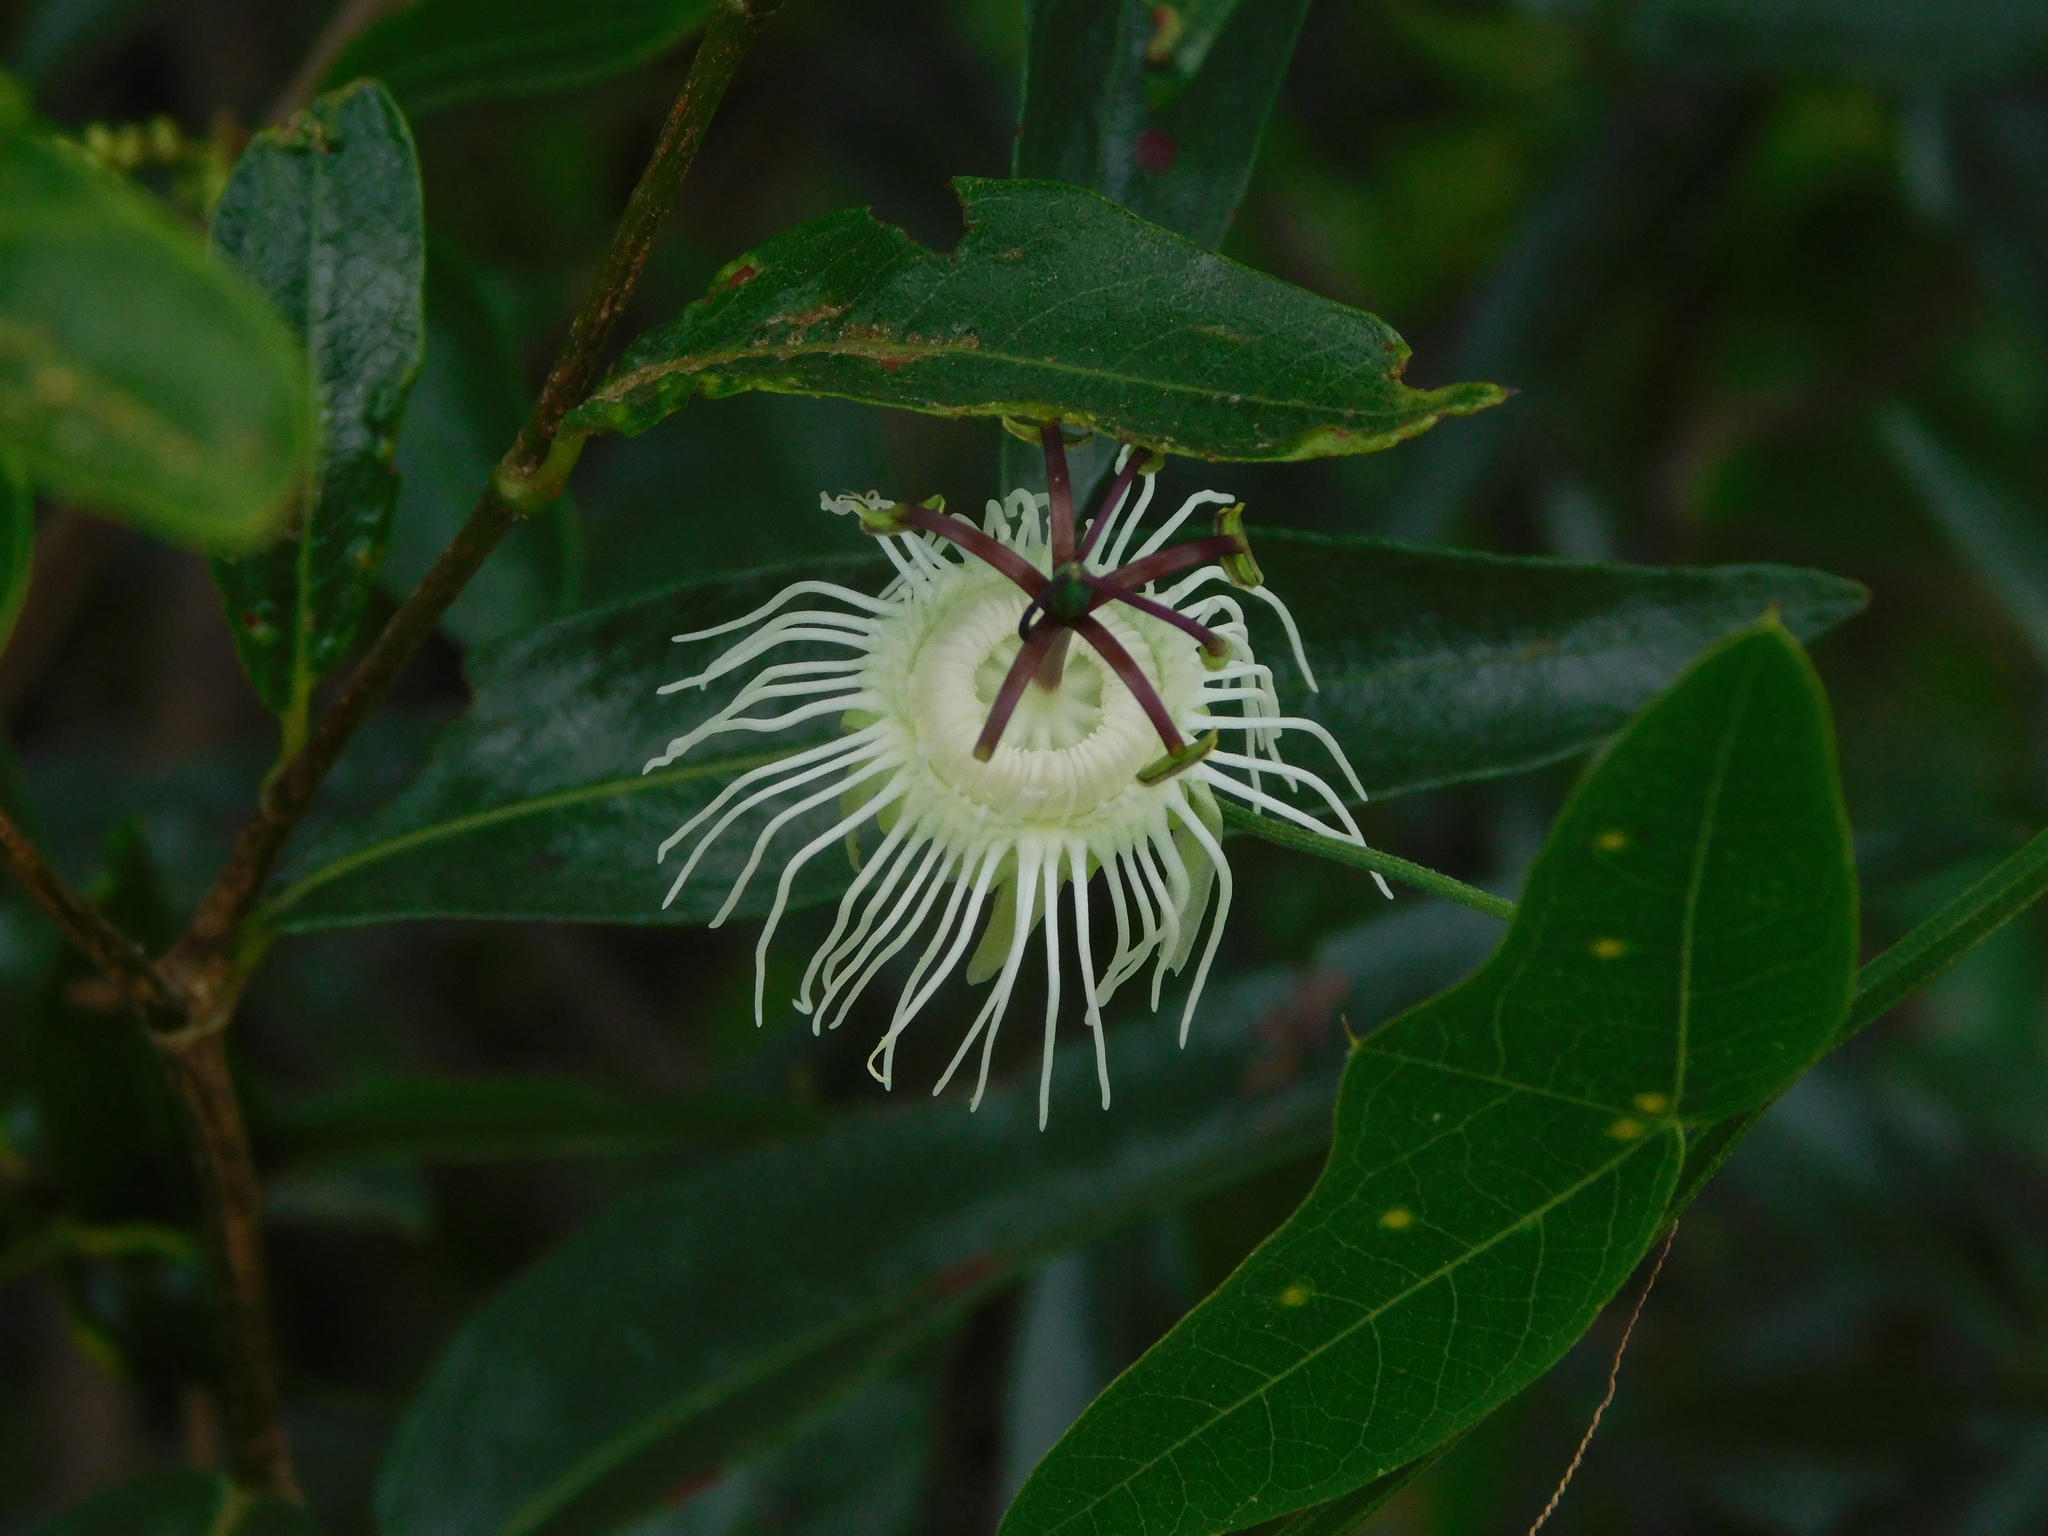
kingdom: Plantae
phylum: Tracheophyta
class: Magnoliopsida
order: Malpighiales
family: Passifloraceae
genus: Passiflora
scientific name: Passiflora misera
